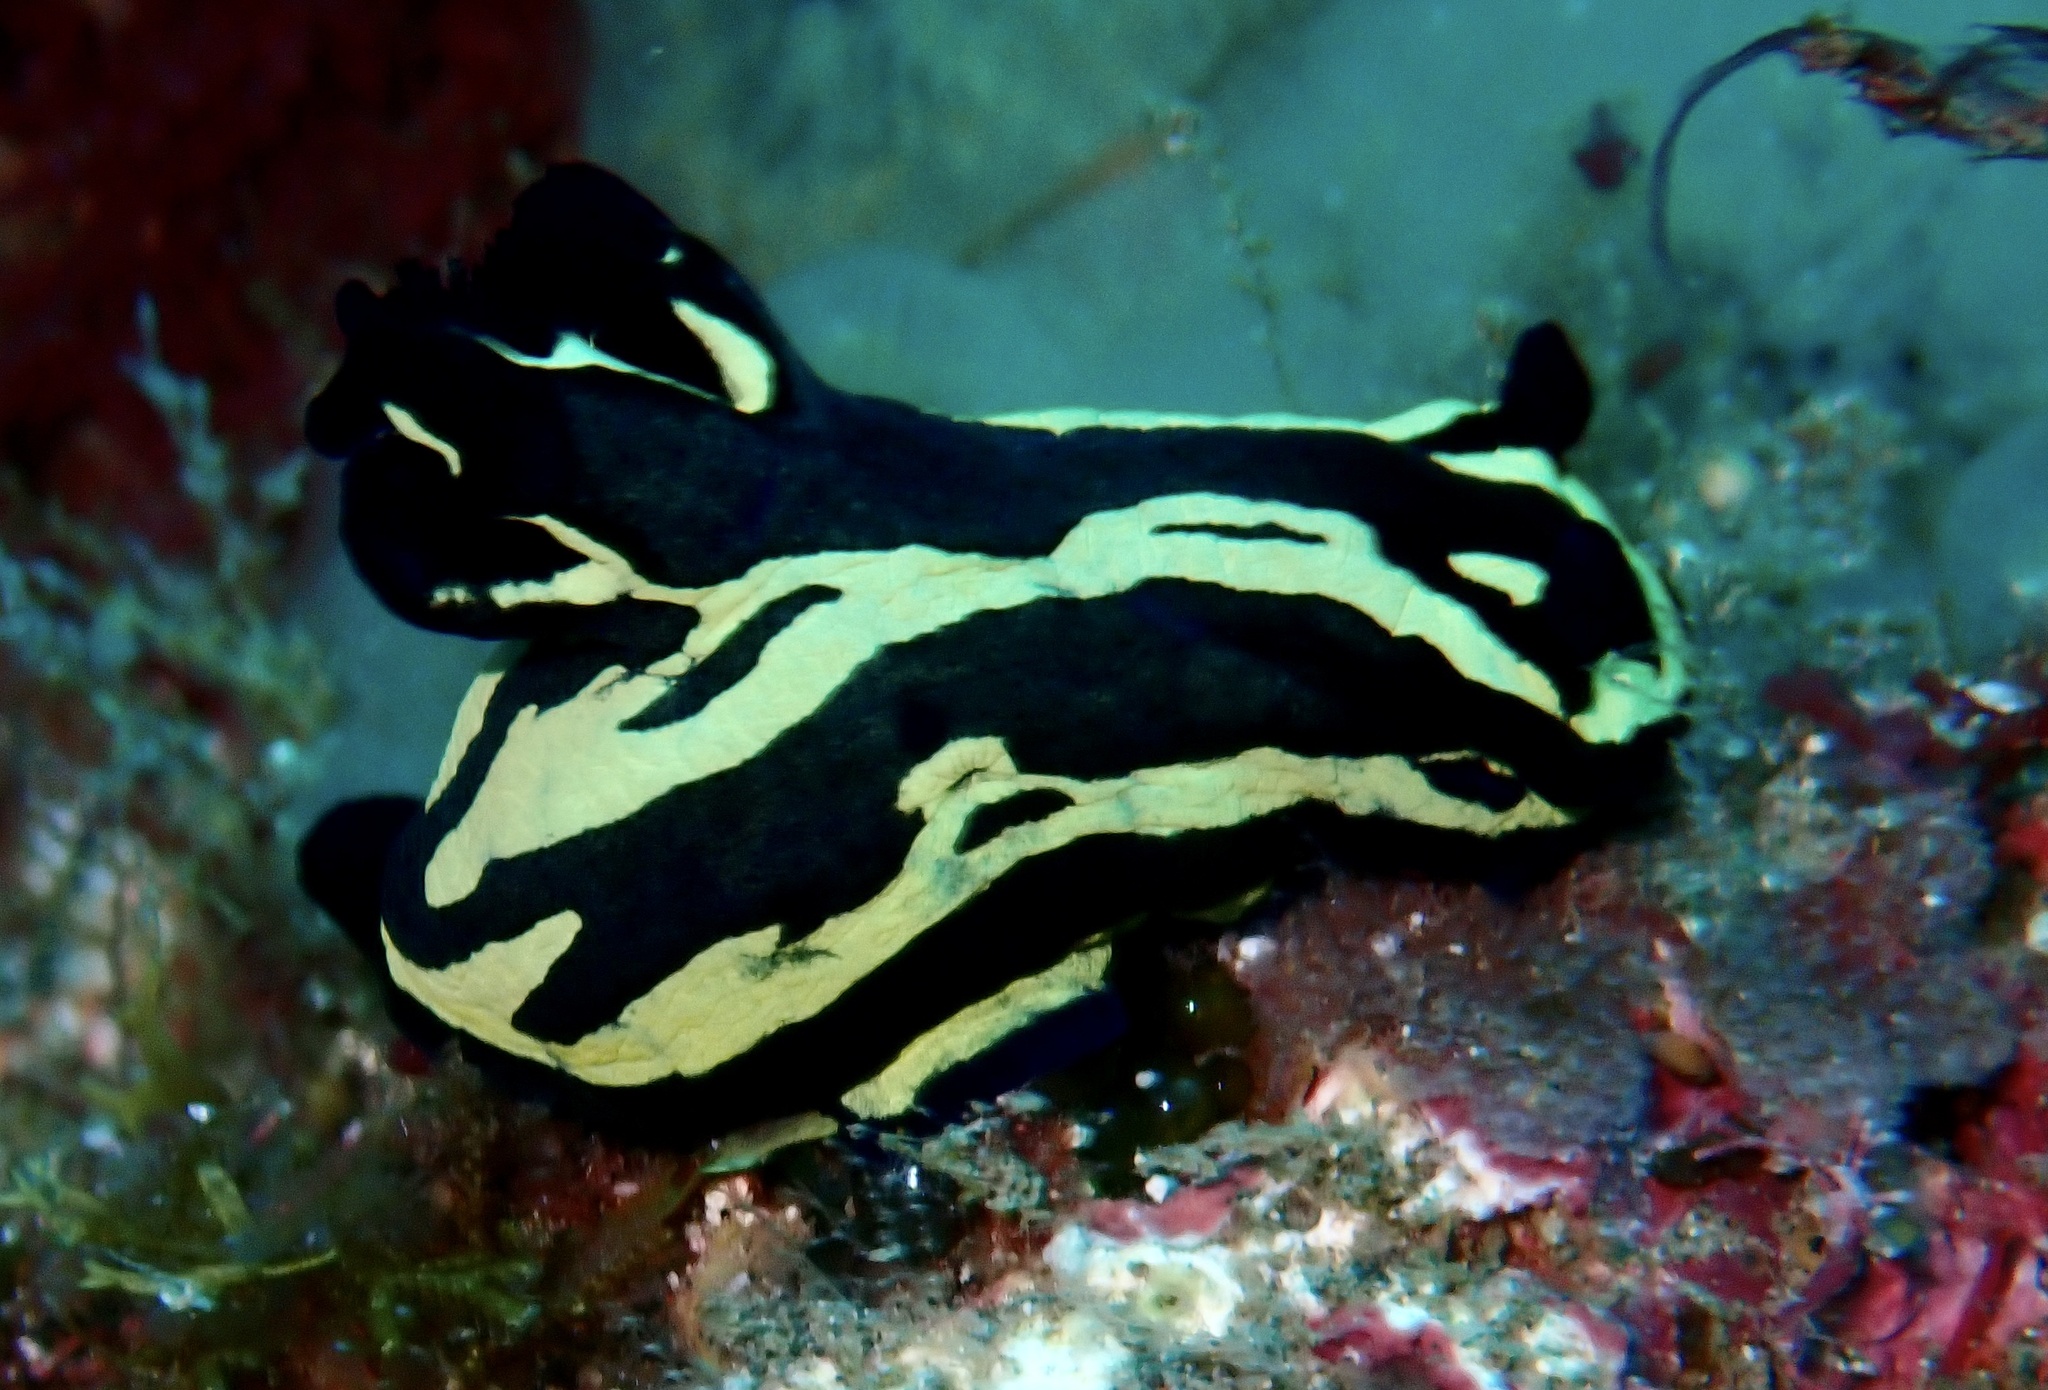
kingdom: Animalia
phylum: Mollusca
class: Gastropoda
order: Nudibranchia
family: Polyceridae
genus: Tambja
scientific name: Tambja fantasmalis
